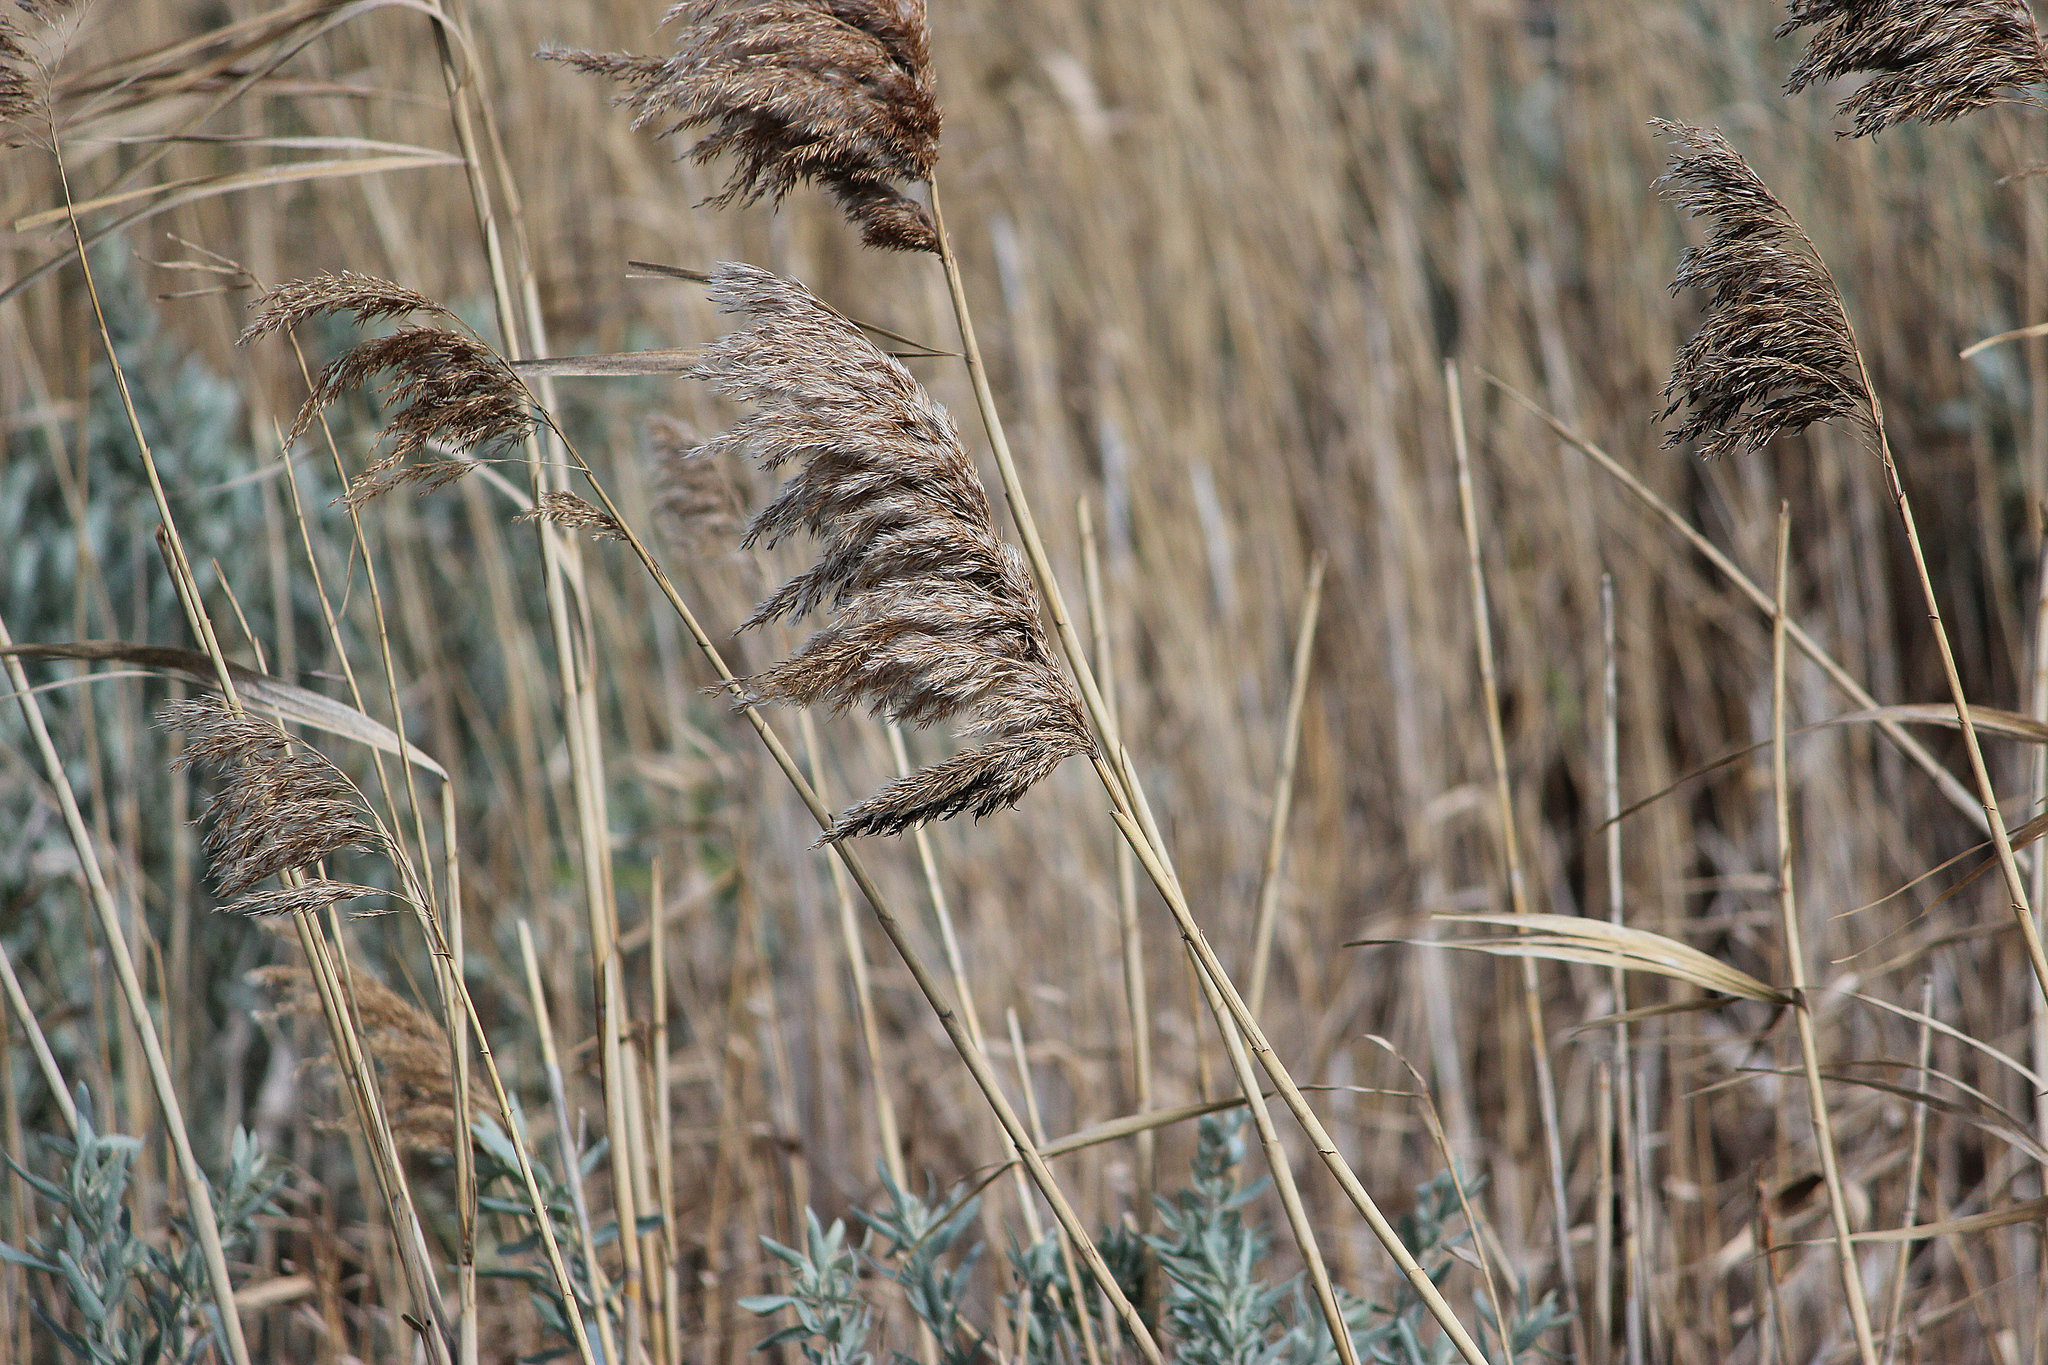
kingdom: Plantae
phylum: Tracheophyta
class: Liliopsida
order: Poales
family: Poaceae
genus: Phragmites
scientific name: Phragmites australis
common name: Common reed
